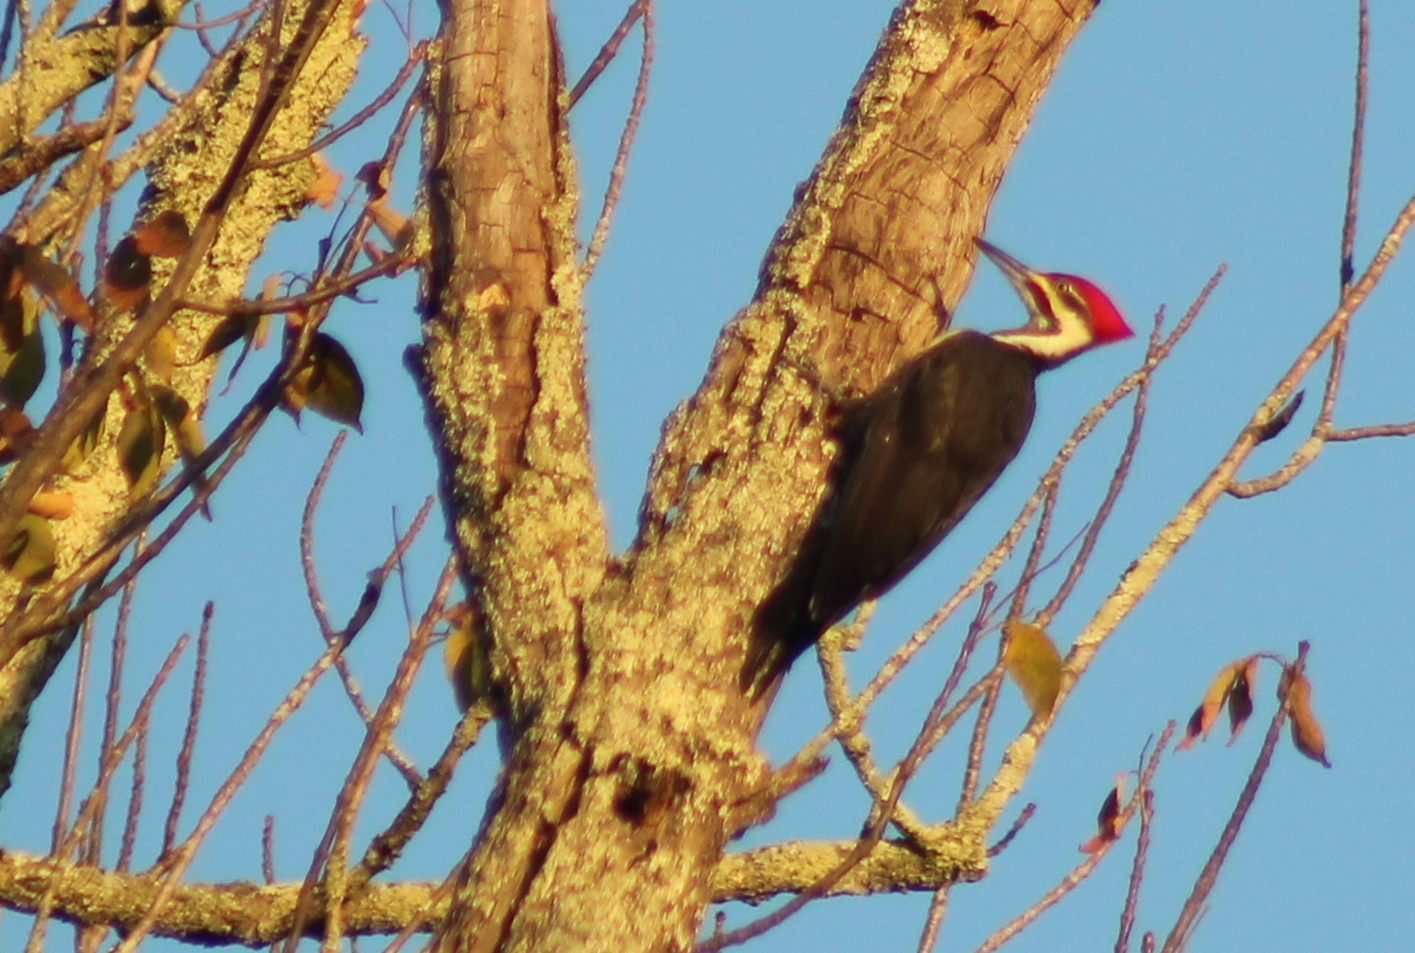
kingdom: Animalia
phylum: Chordata
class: Aves
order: Piciformes
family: Picidae
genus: Dryocopus
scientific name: Dryocopus pileatus
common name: Pileated woodpecker
